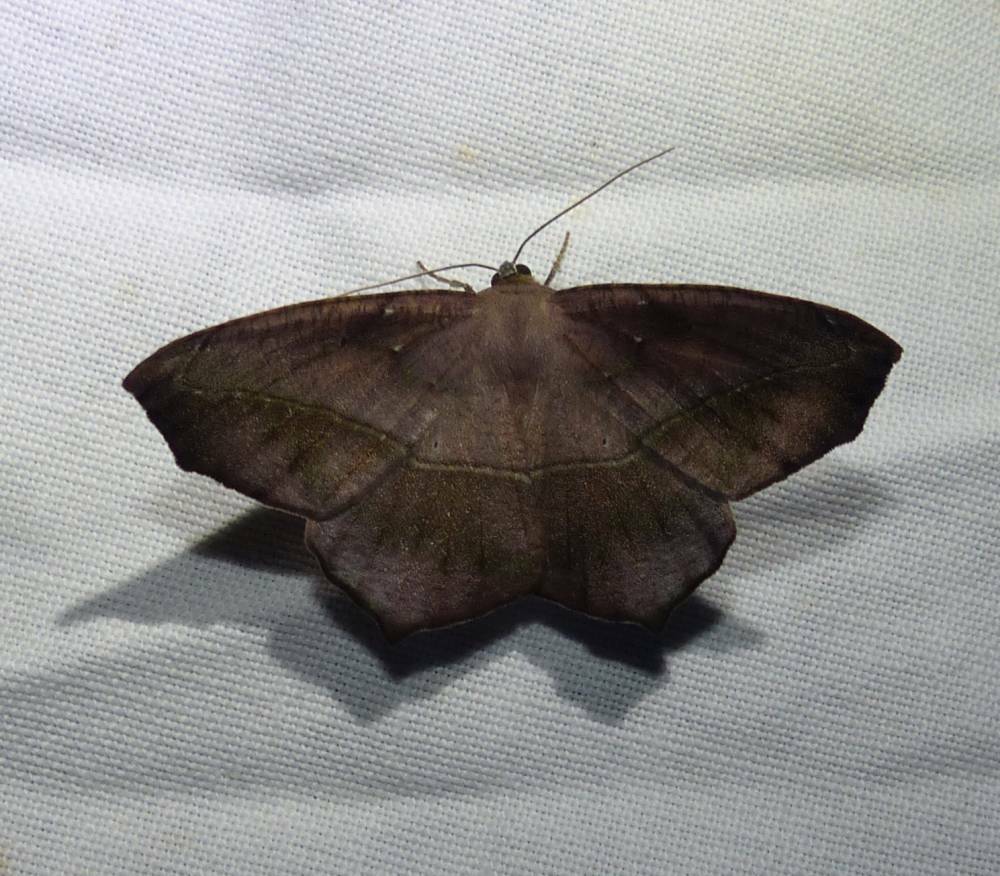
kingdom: Animalia
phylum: Arthropoda
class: Insecta
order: Lepidoptera
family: Geometridae
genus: Prochoerodes
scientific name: Prochoerodes lineola
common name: Large maple spanworm
